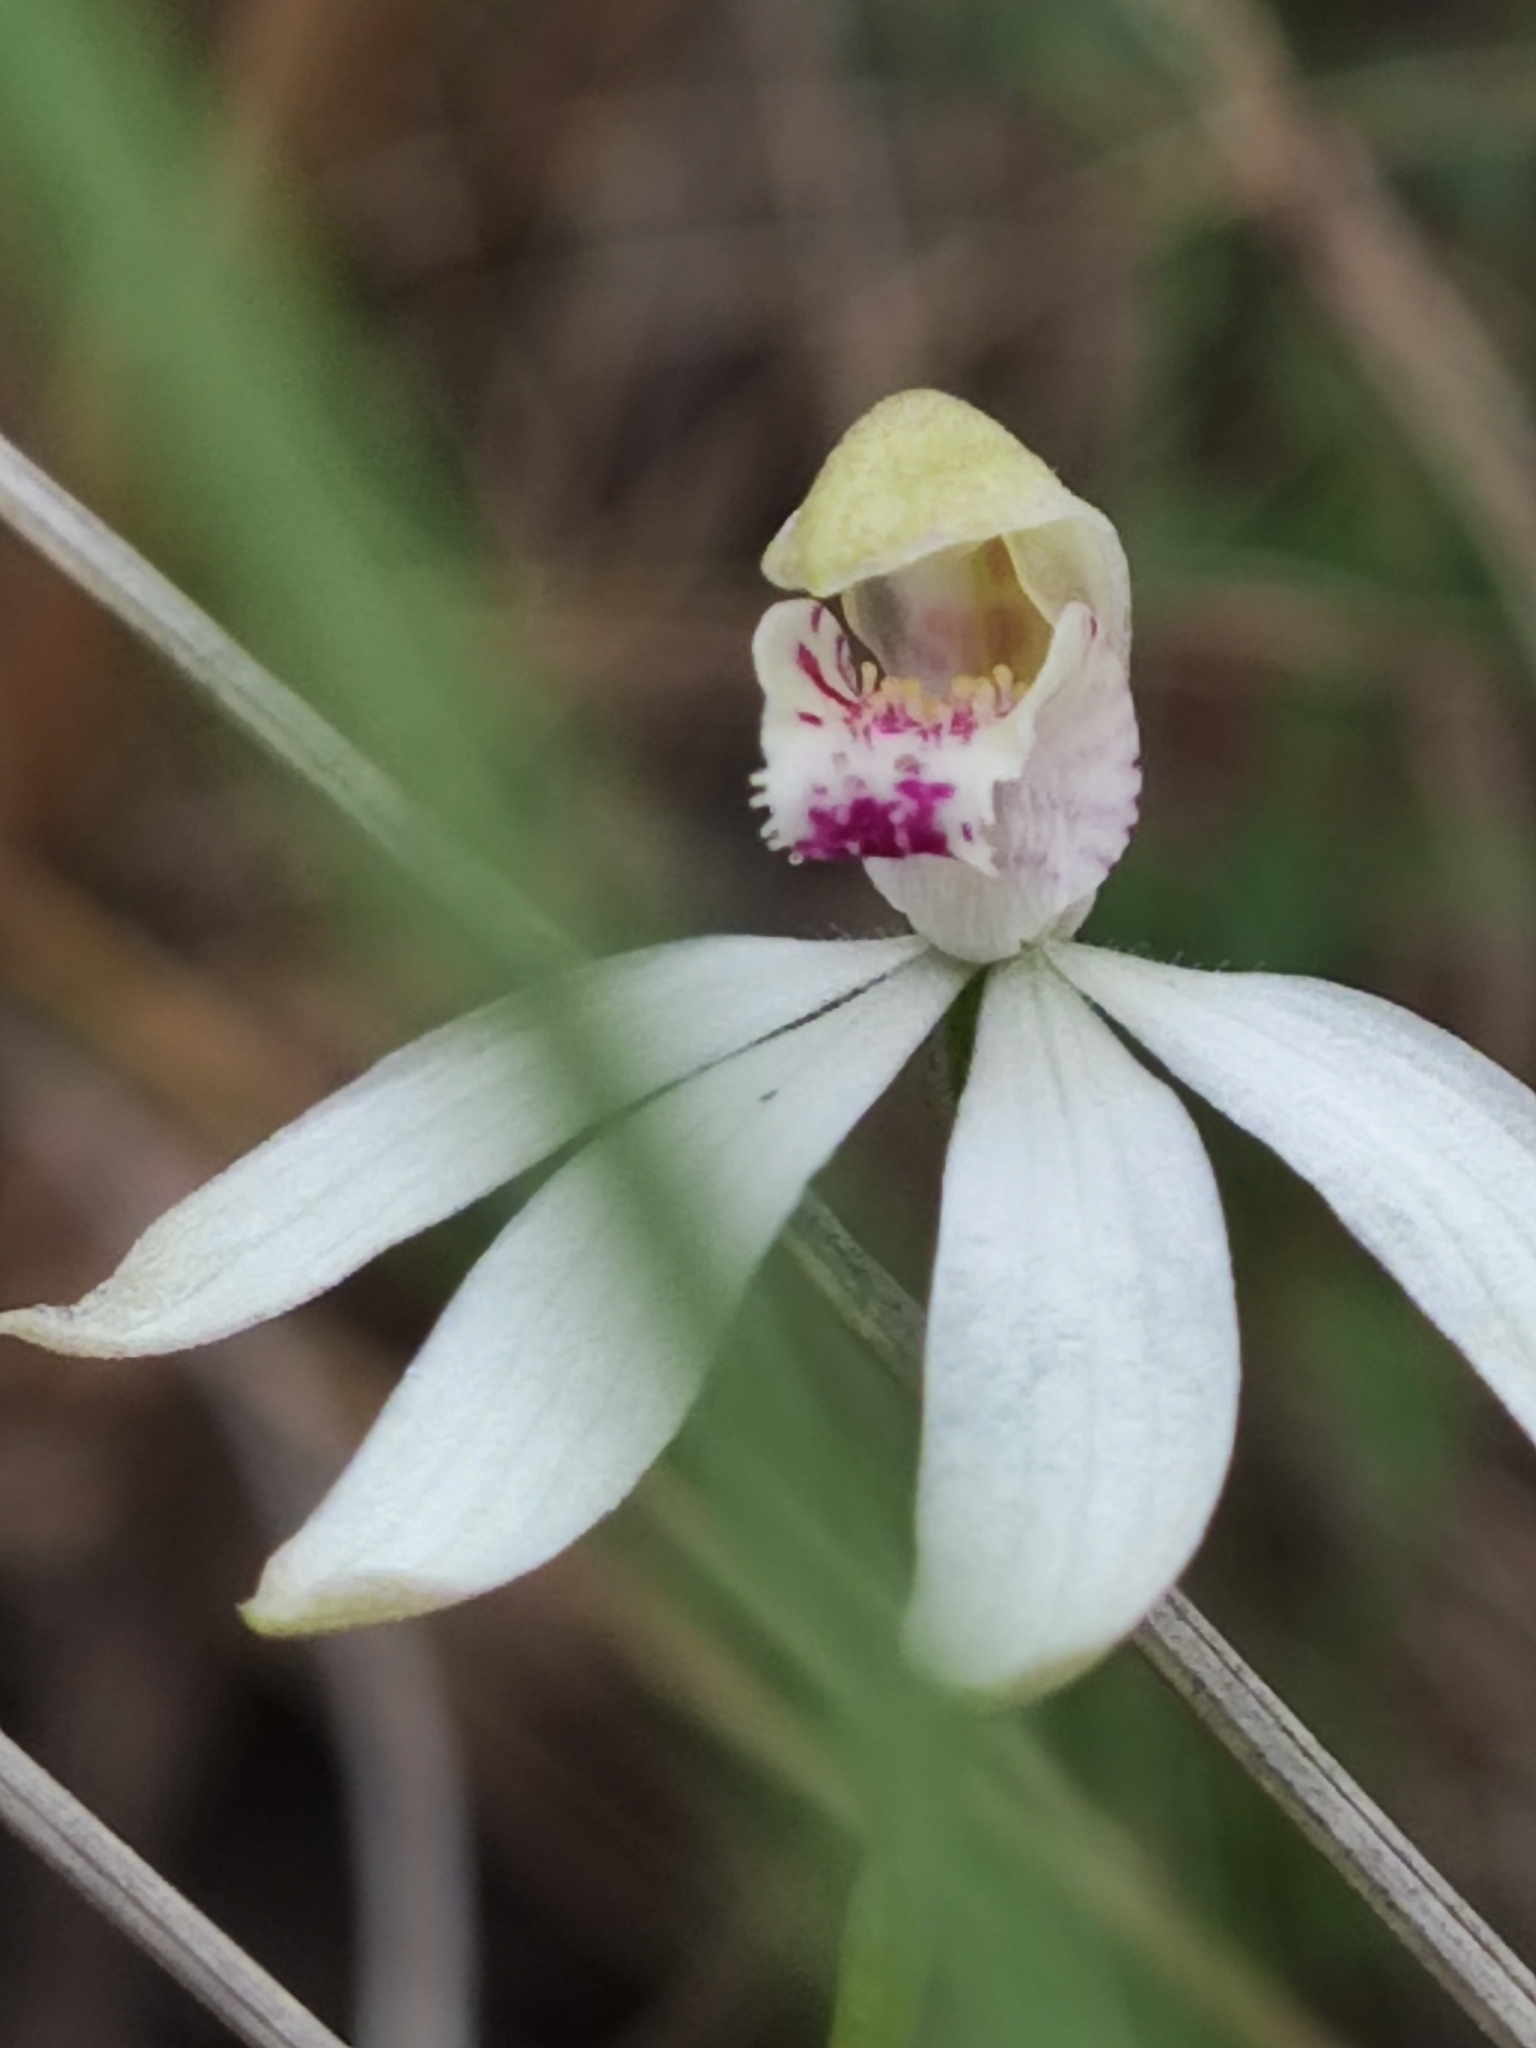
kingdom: Plantae
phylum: Tracheophyta
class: Liliopsida
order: Asparagales
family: Orchidaceae
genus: Caladenia
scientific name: Caladenia moschata
